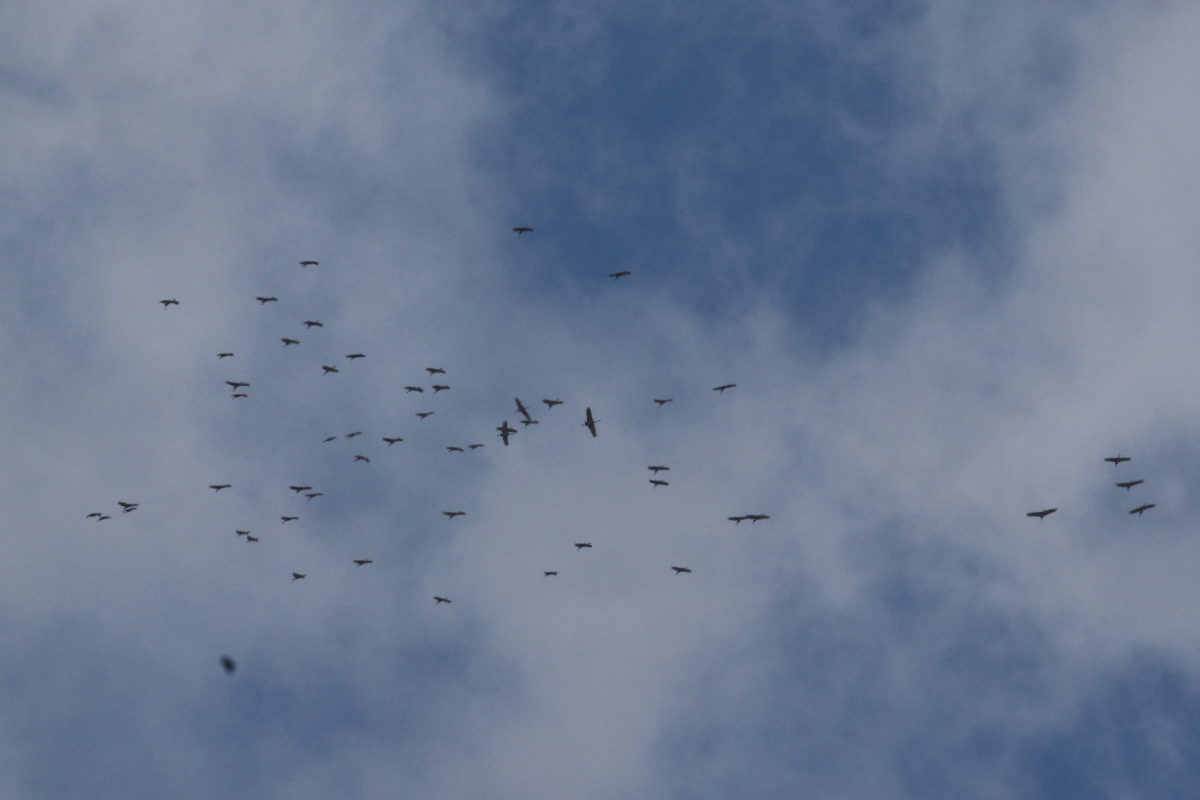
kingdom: Animalia
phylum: Chordata
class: Aves
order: Gruiformes
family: Gruidae
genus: Grus
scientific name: Grus canadensis
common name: Sandhill crane
